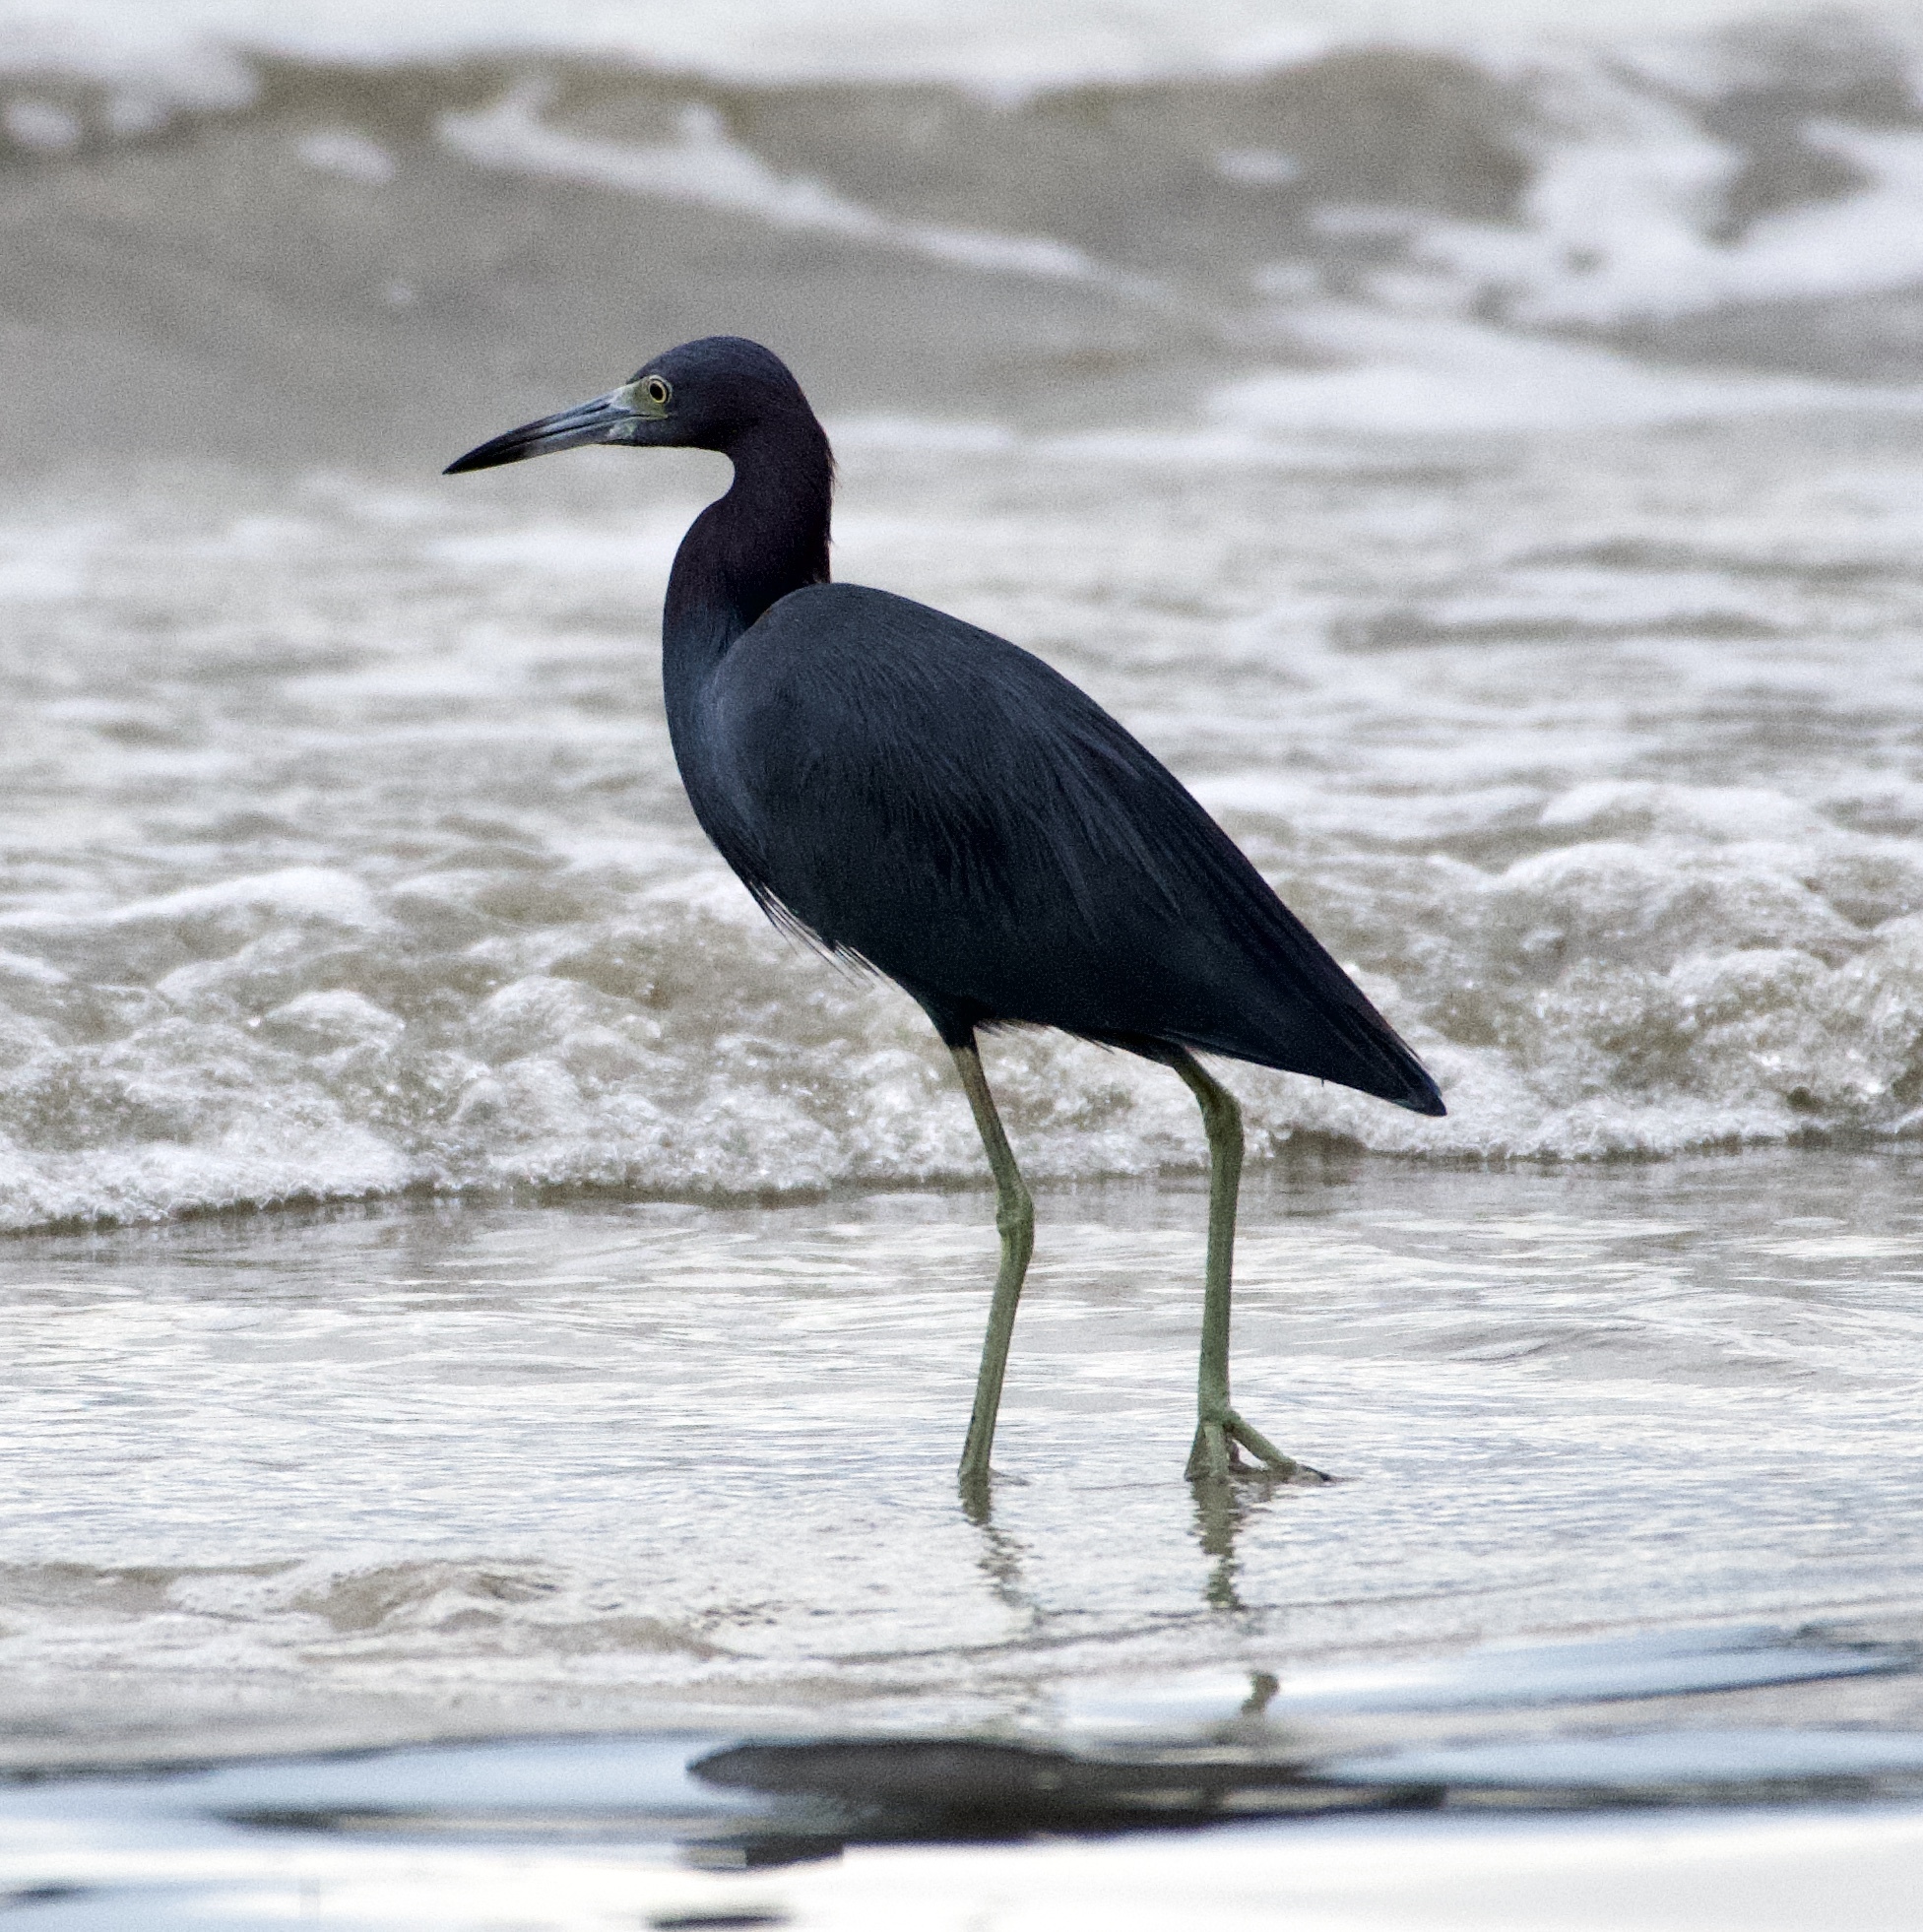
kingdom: Animalia
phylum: Chordata
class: Aves
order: Pelecaniformes
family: Ardeidae
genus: Egretta
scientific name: Egretta caerulea
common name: Little blue heron
